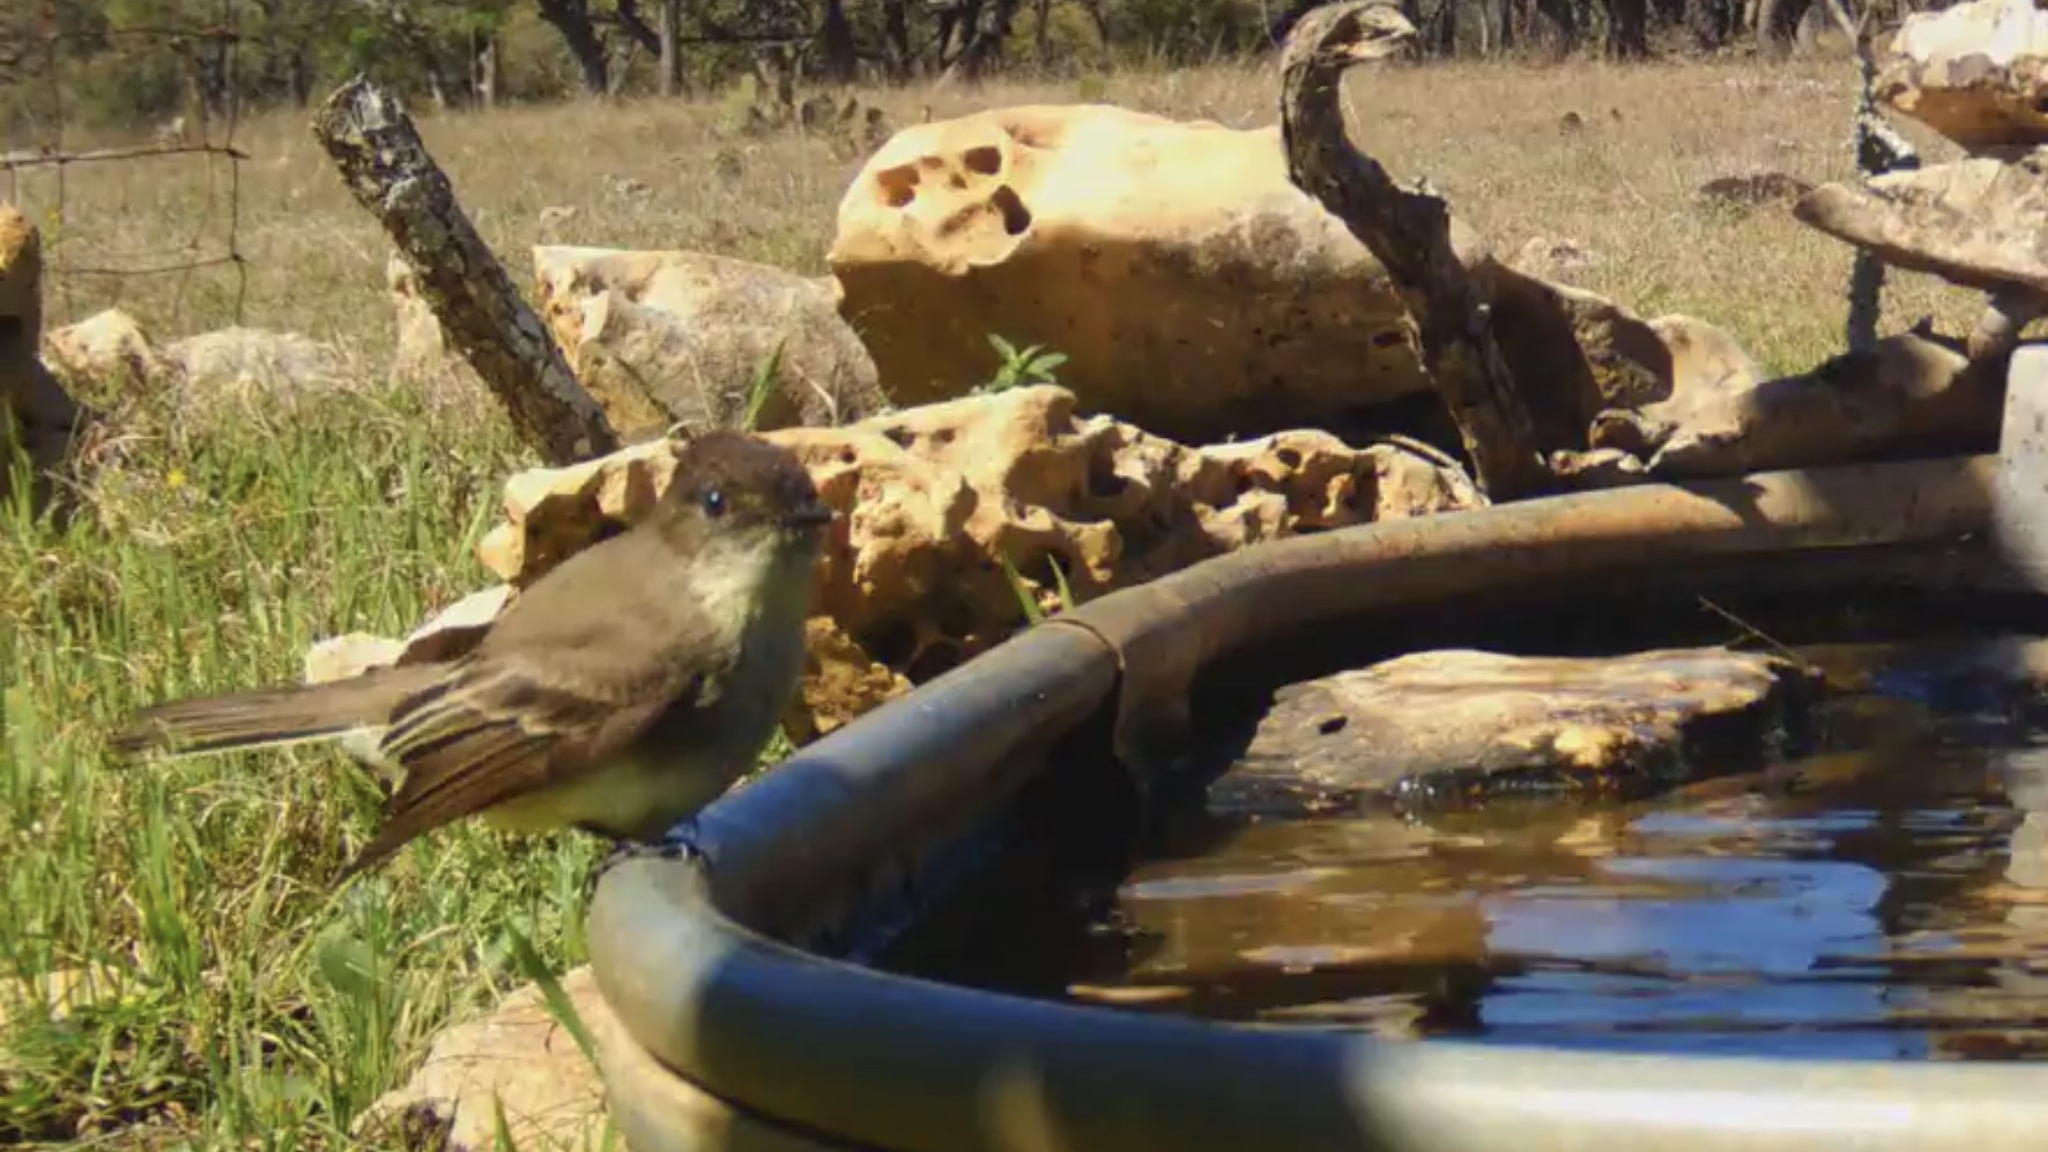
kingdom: Animalia
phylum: Chordata
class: Aves
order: Passeriformes
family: Tyrannidae
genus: Sayornis
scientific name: Sayornis phoebe
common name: Eastern phoebe
